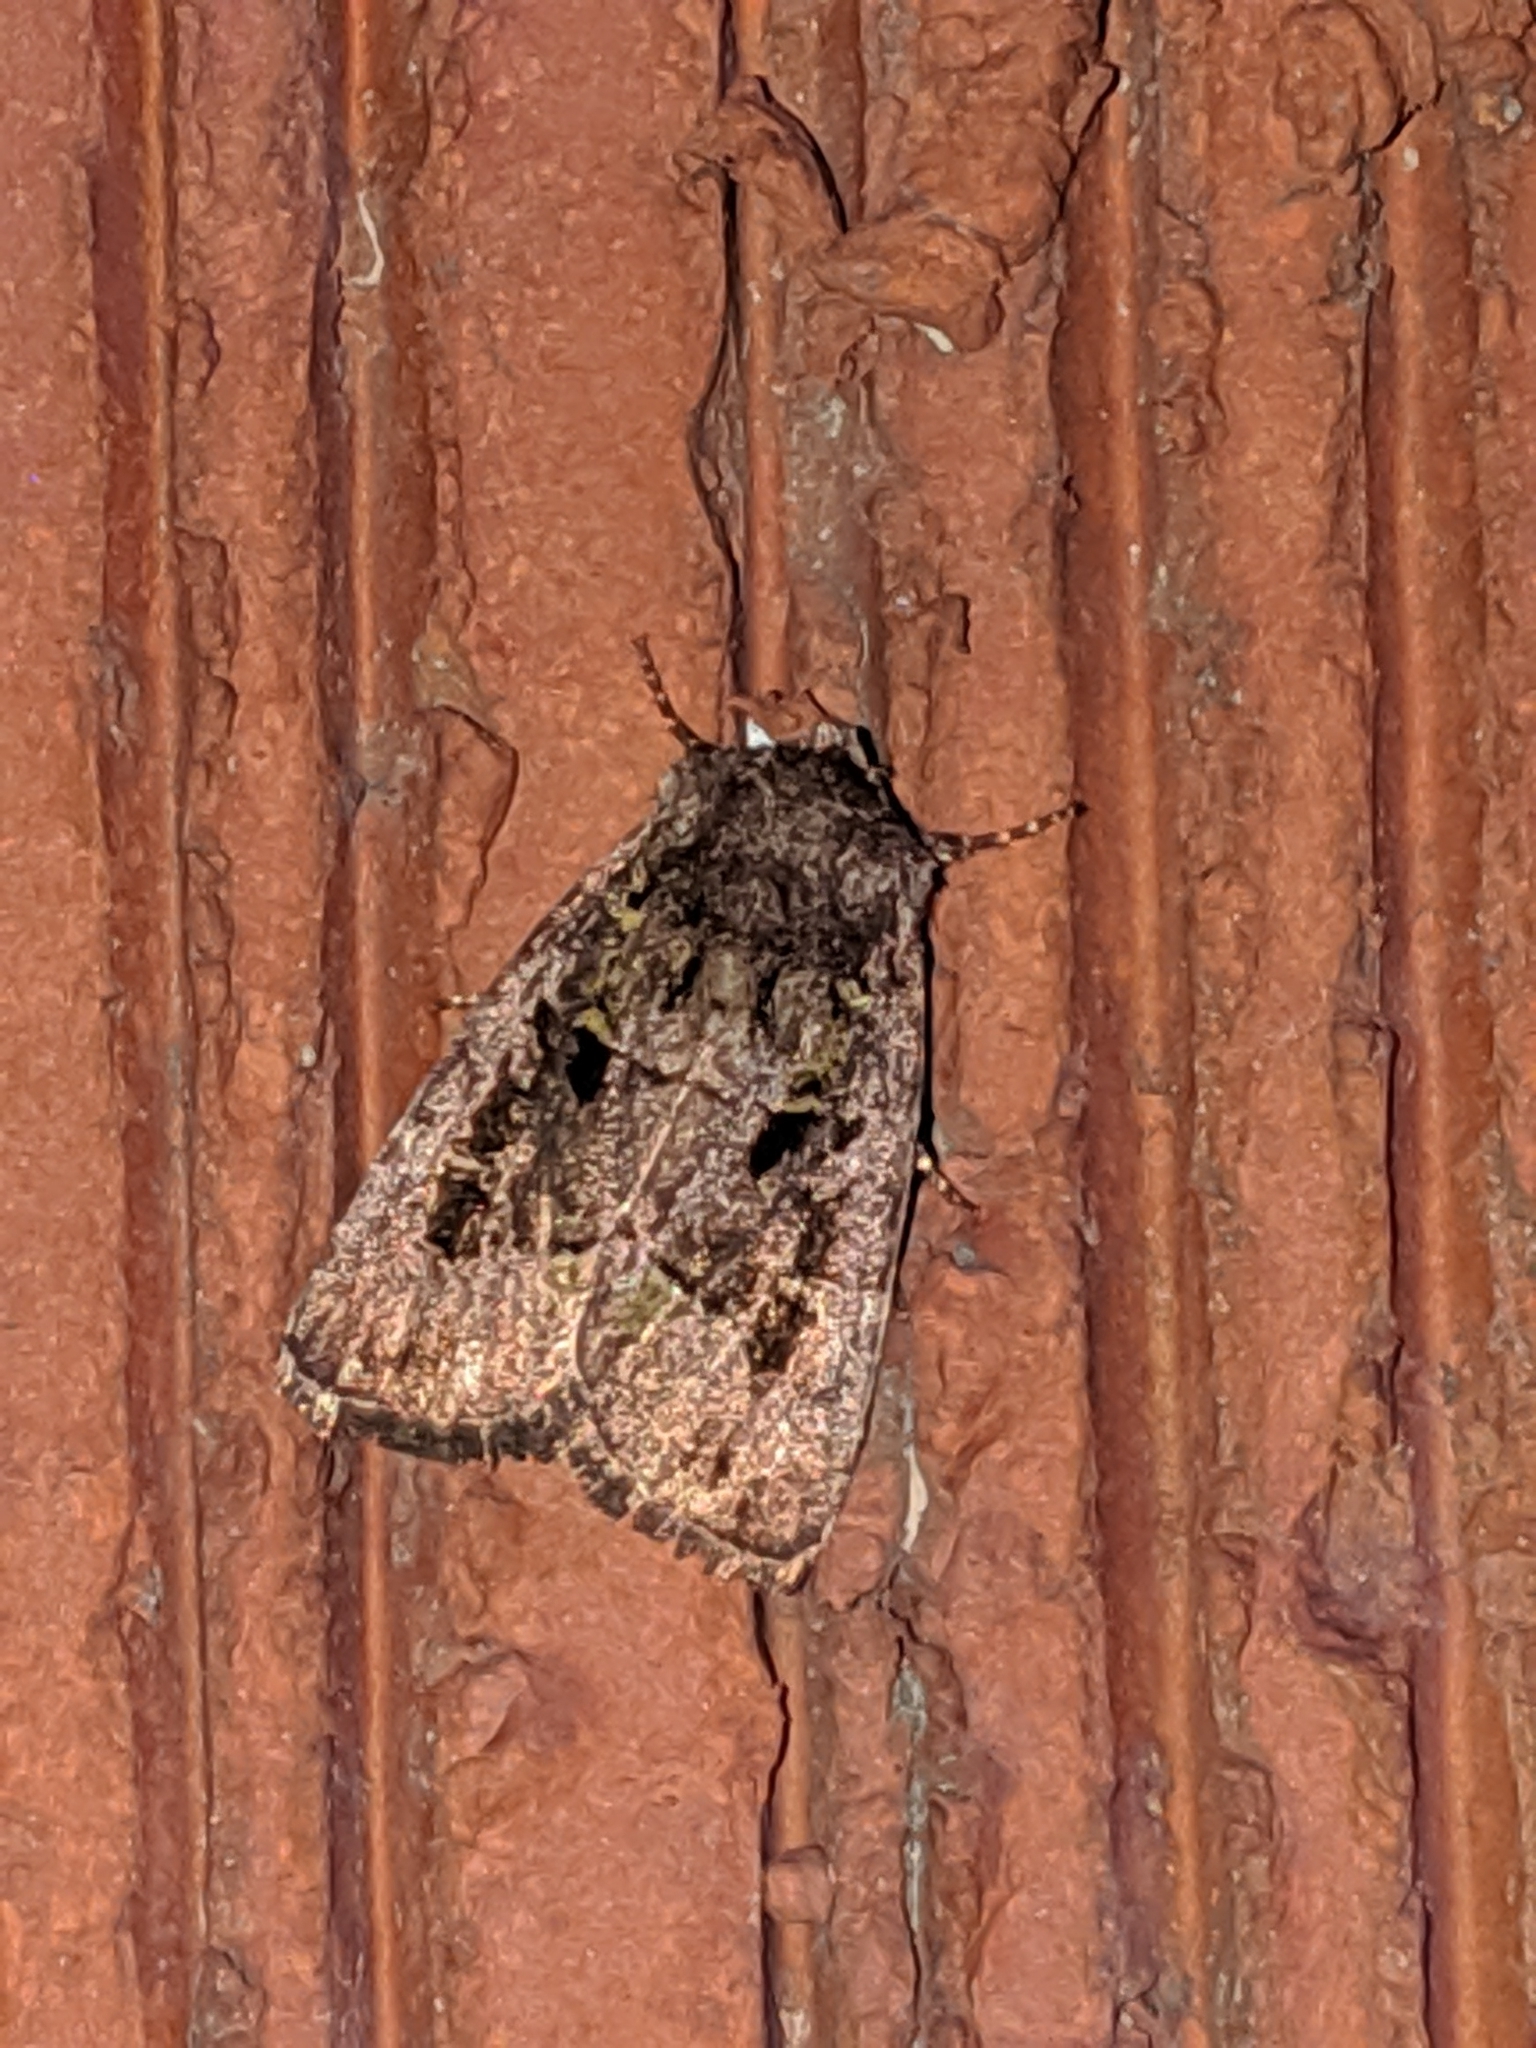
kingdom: Animalia
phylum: Arthropoda
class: Insecta
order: Lepidoptera
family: Noctuidae
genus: Lacinipolia
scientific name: Lacinipolia renigera
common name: Kidney-spotted minor
